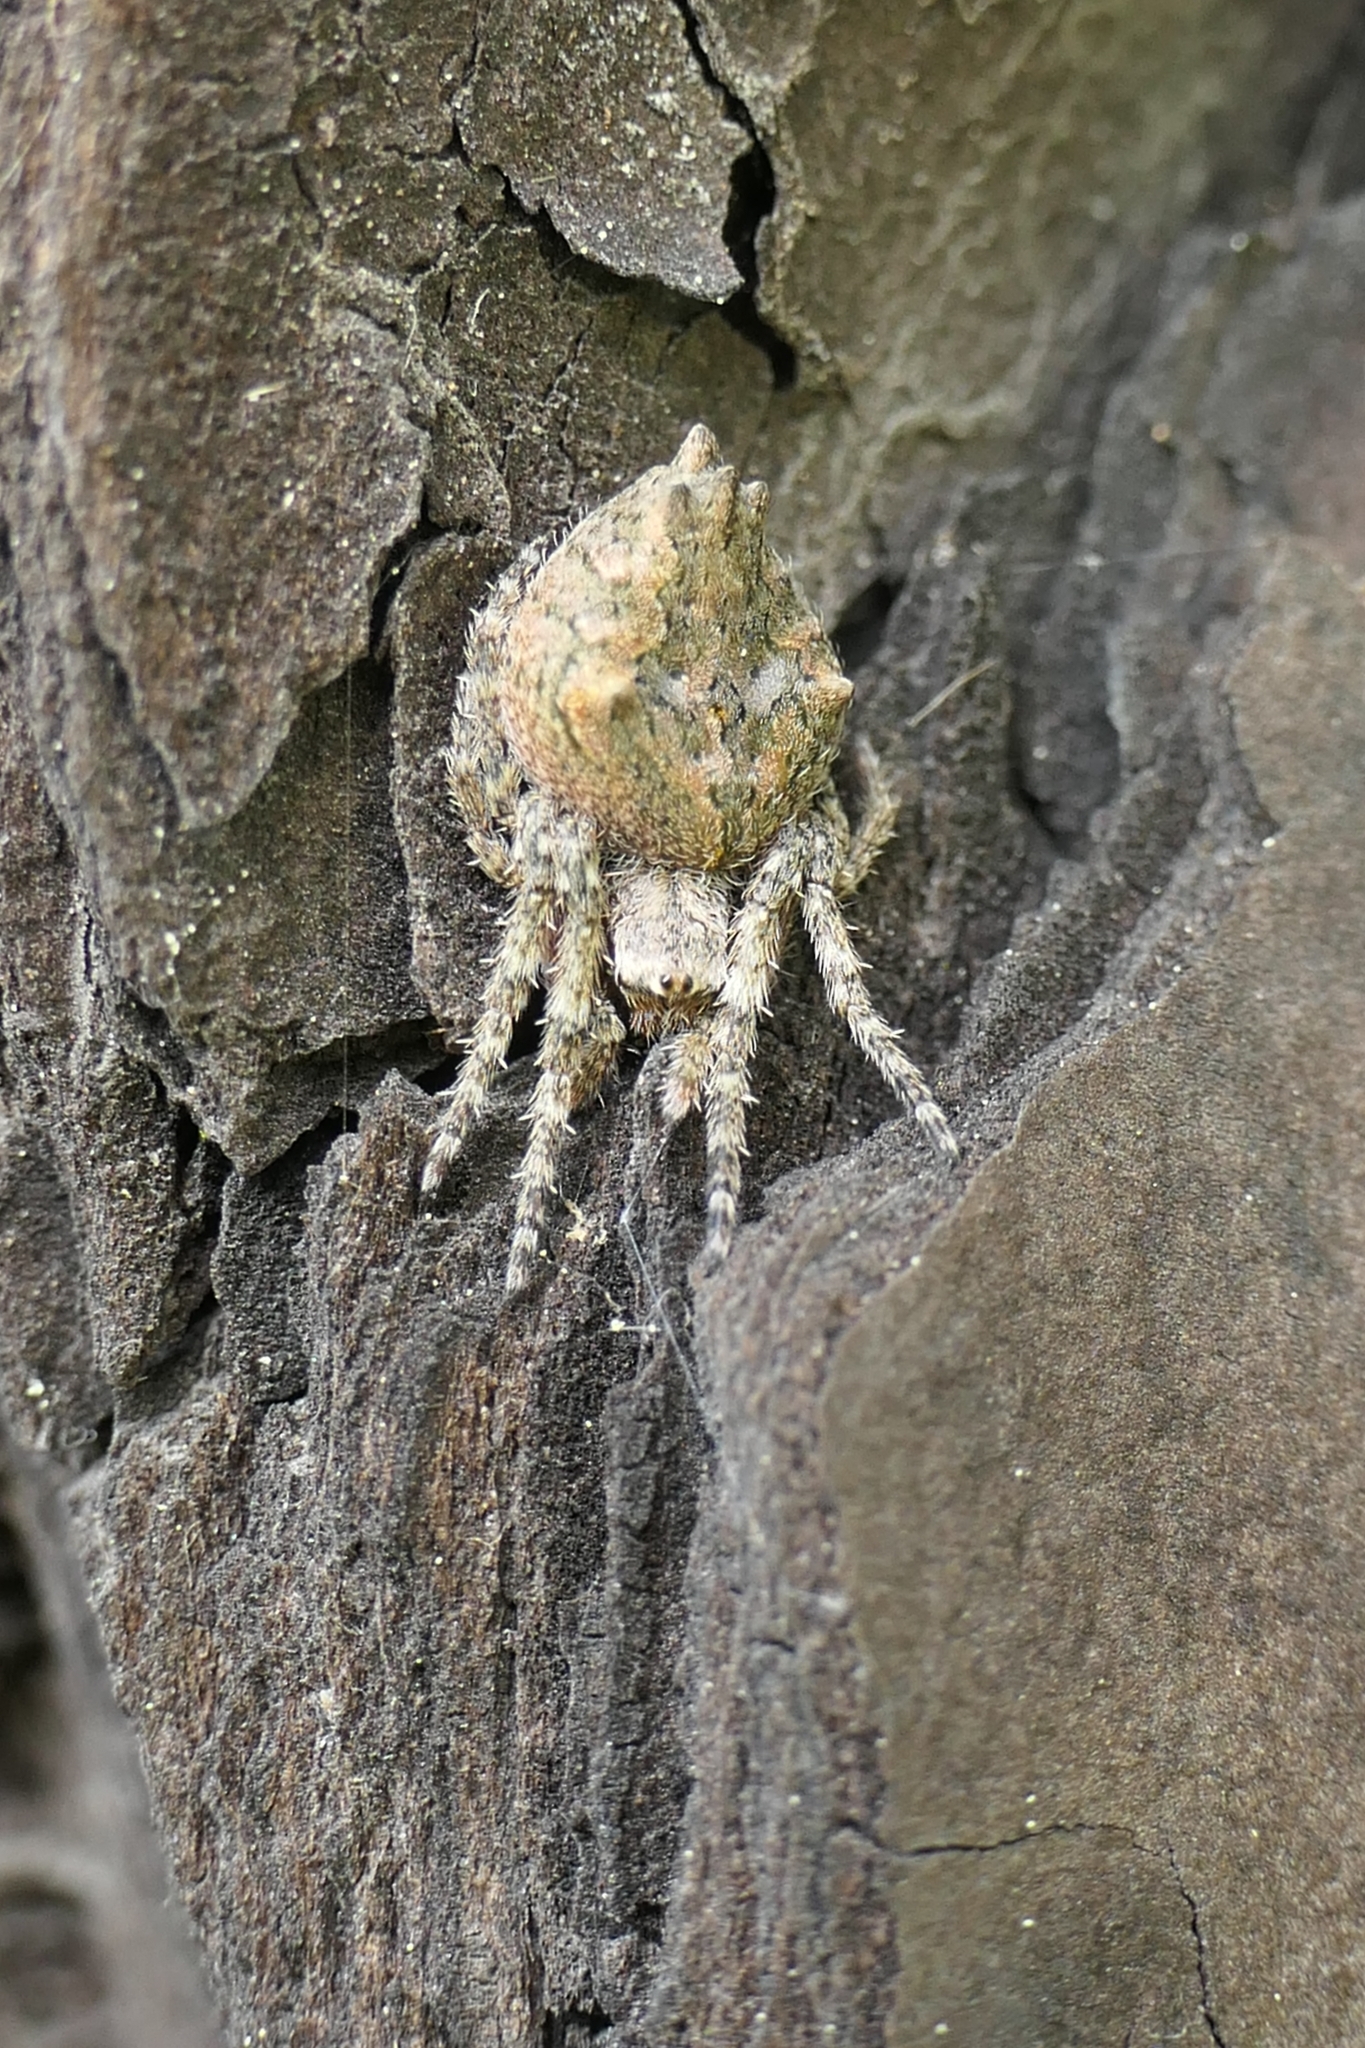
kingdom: Animalia
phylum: Arthropoda
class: Arachnida
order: Araneae
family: Araneidae
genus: Eriophora
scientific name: Eriophora pustulosa
